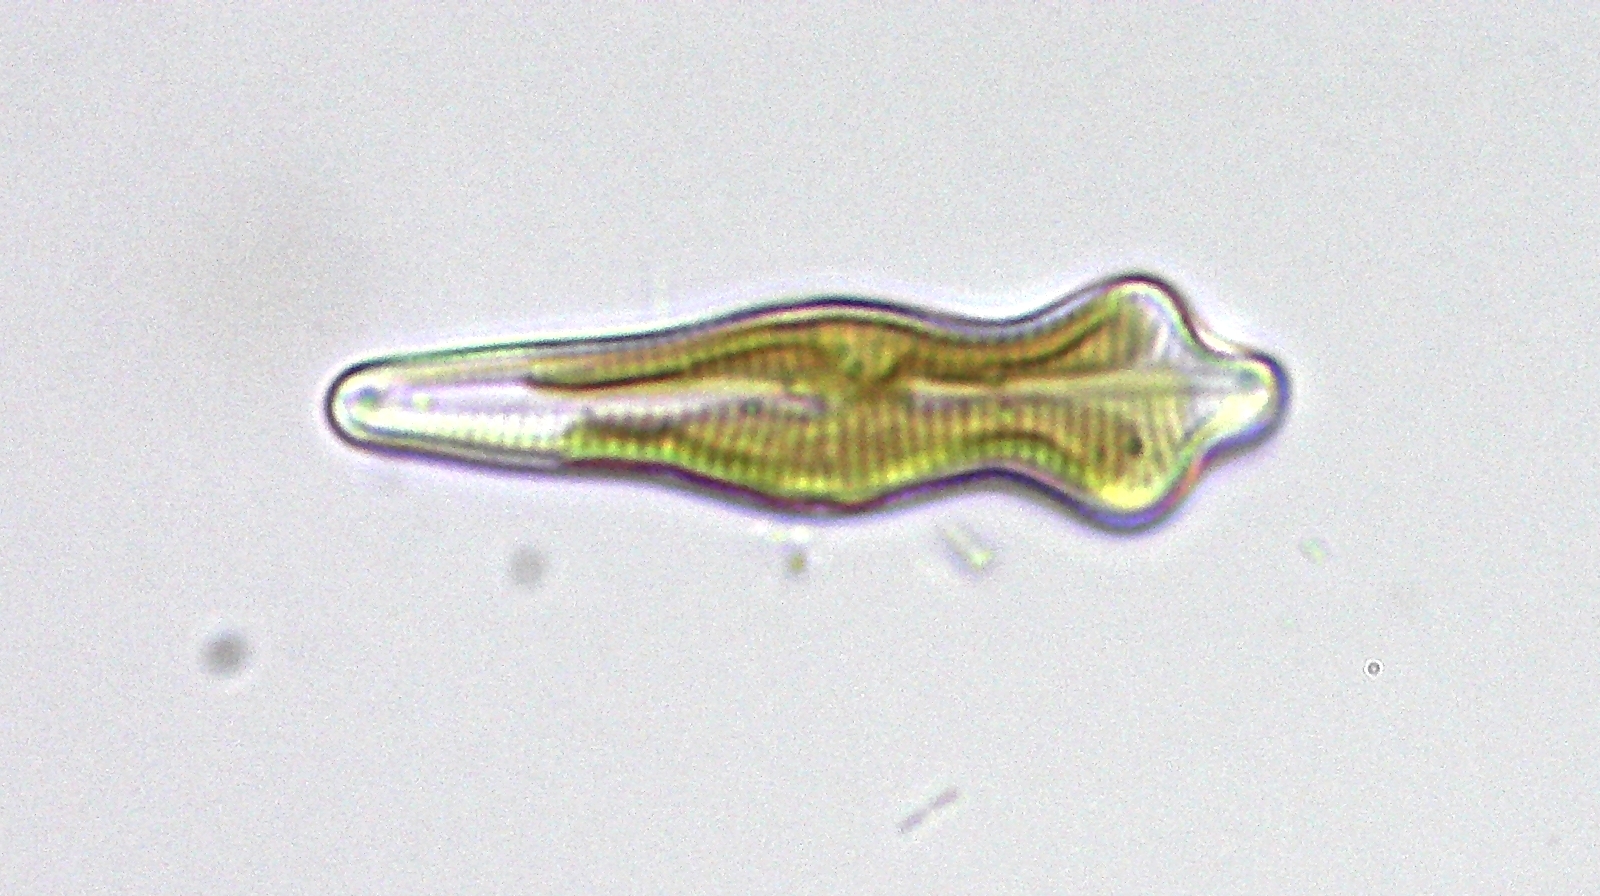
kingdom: Chromista
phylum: Ochrophyta
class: Bacillariophyceae
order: Cymbellales
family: Gomphonemataceae
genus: Gomphonema
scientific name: Gomphonema acuminatum
